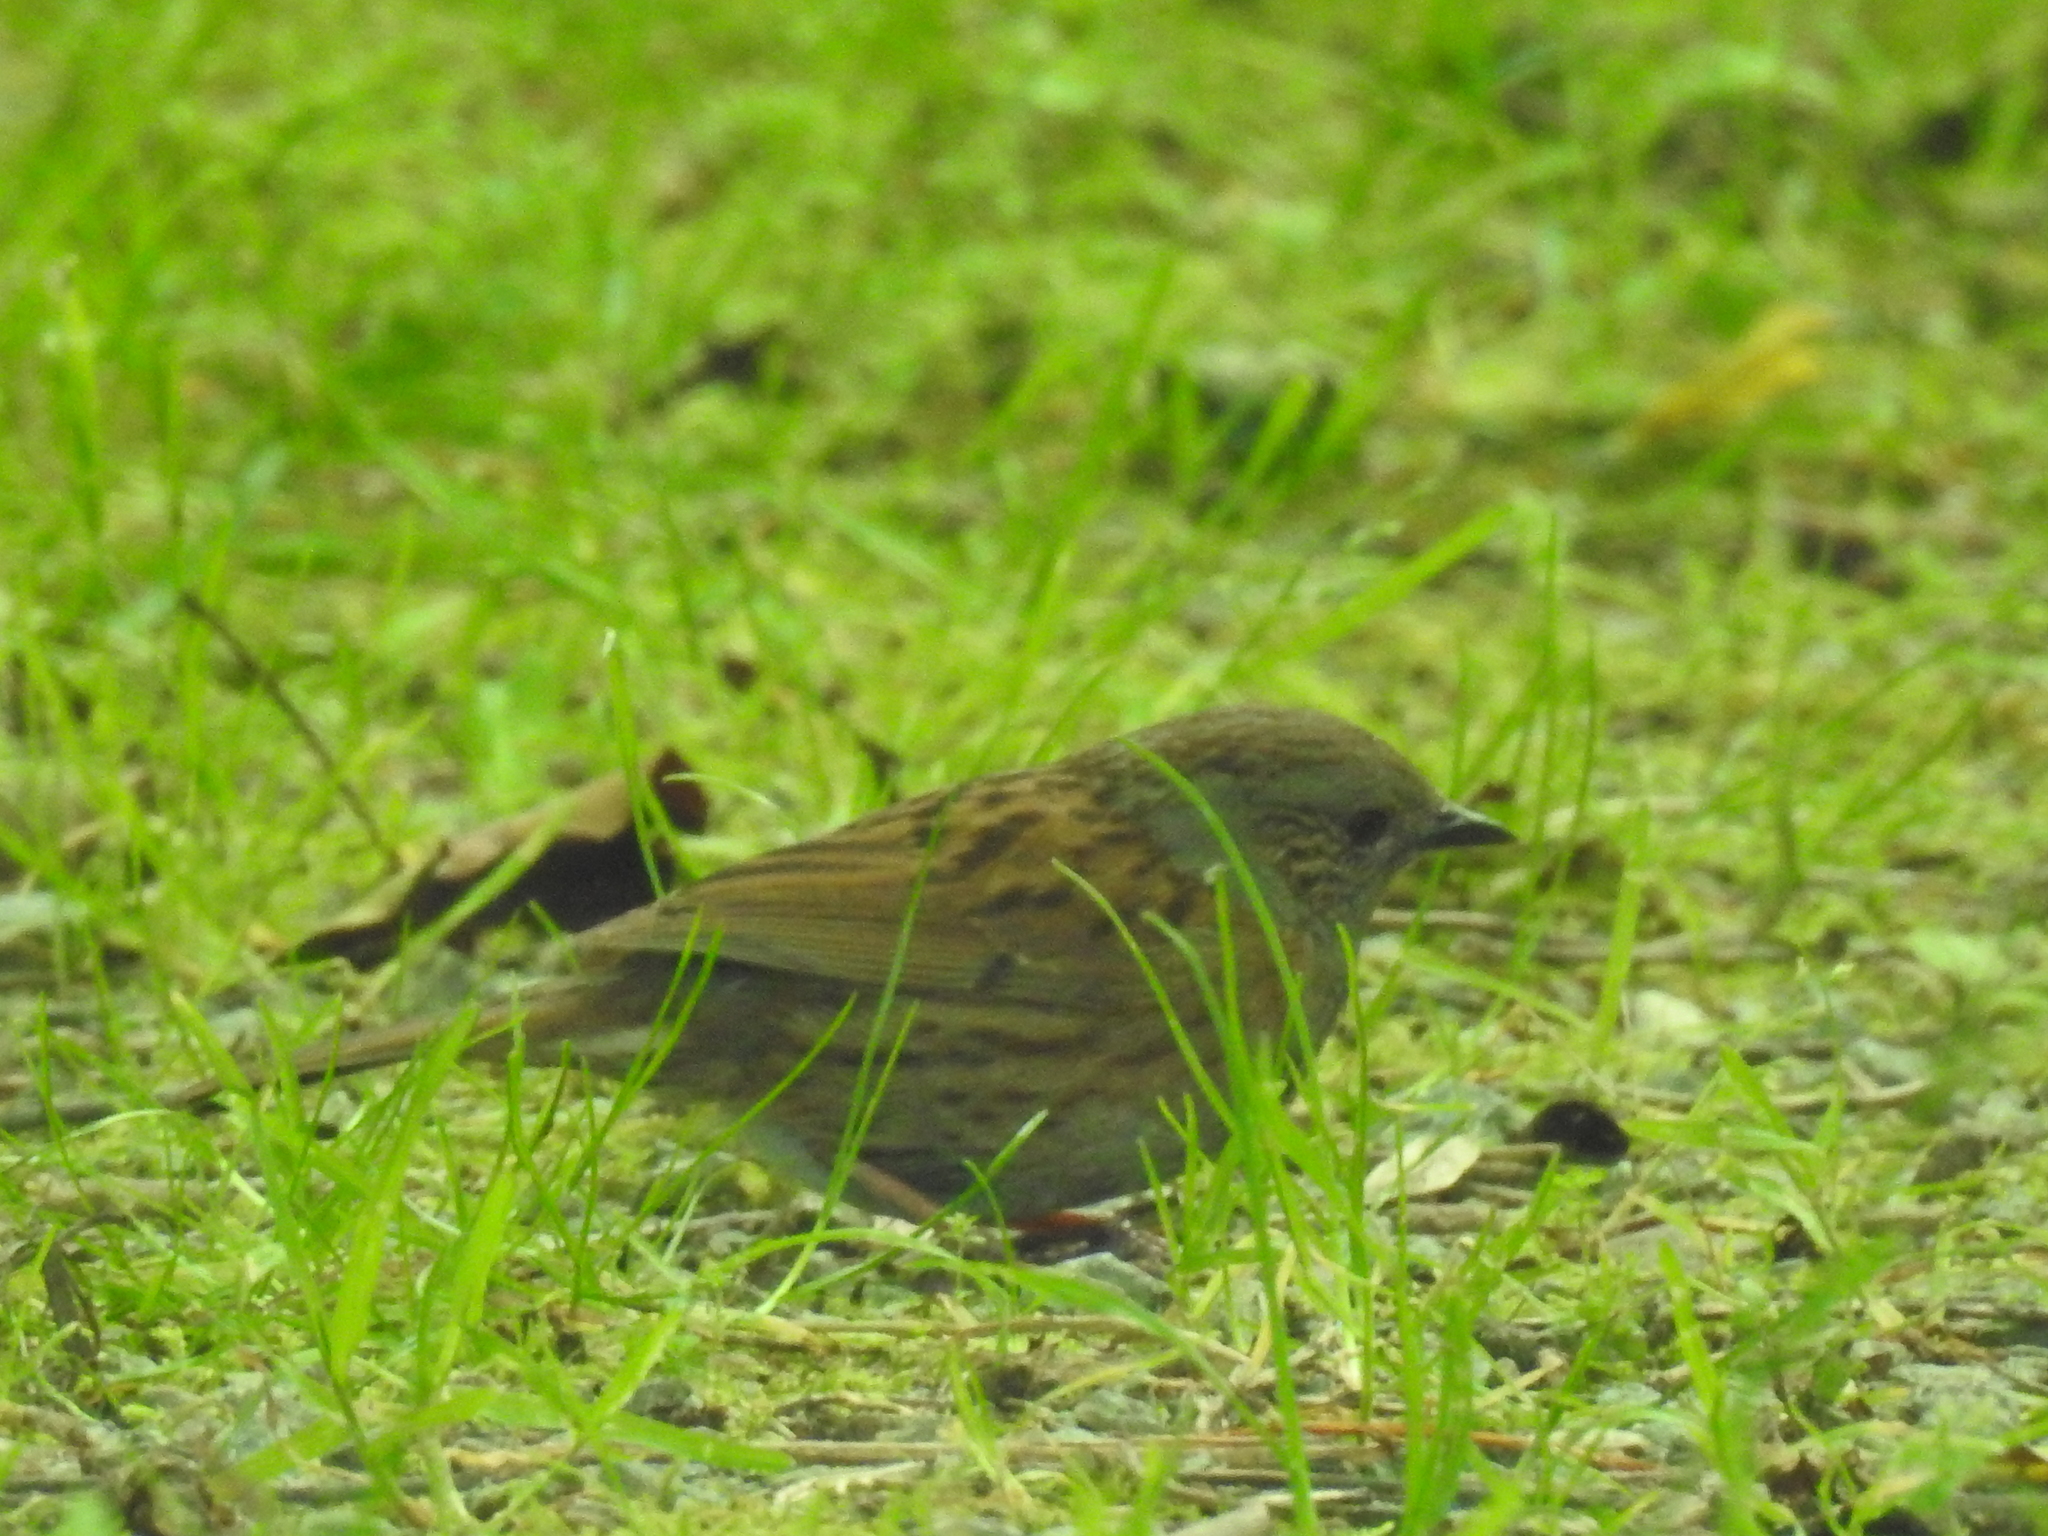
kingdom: Animalia
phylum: Chordata
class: Aves
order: Passeriformes
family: Prunellidae
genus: Prunella
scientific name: Prunella modularis
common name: Dunnock
